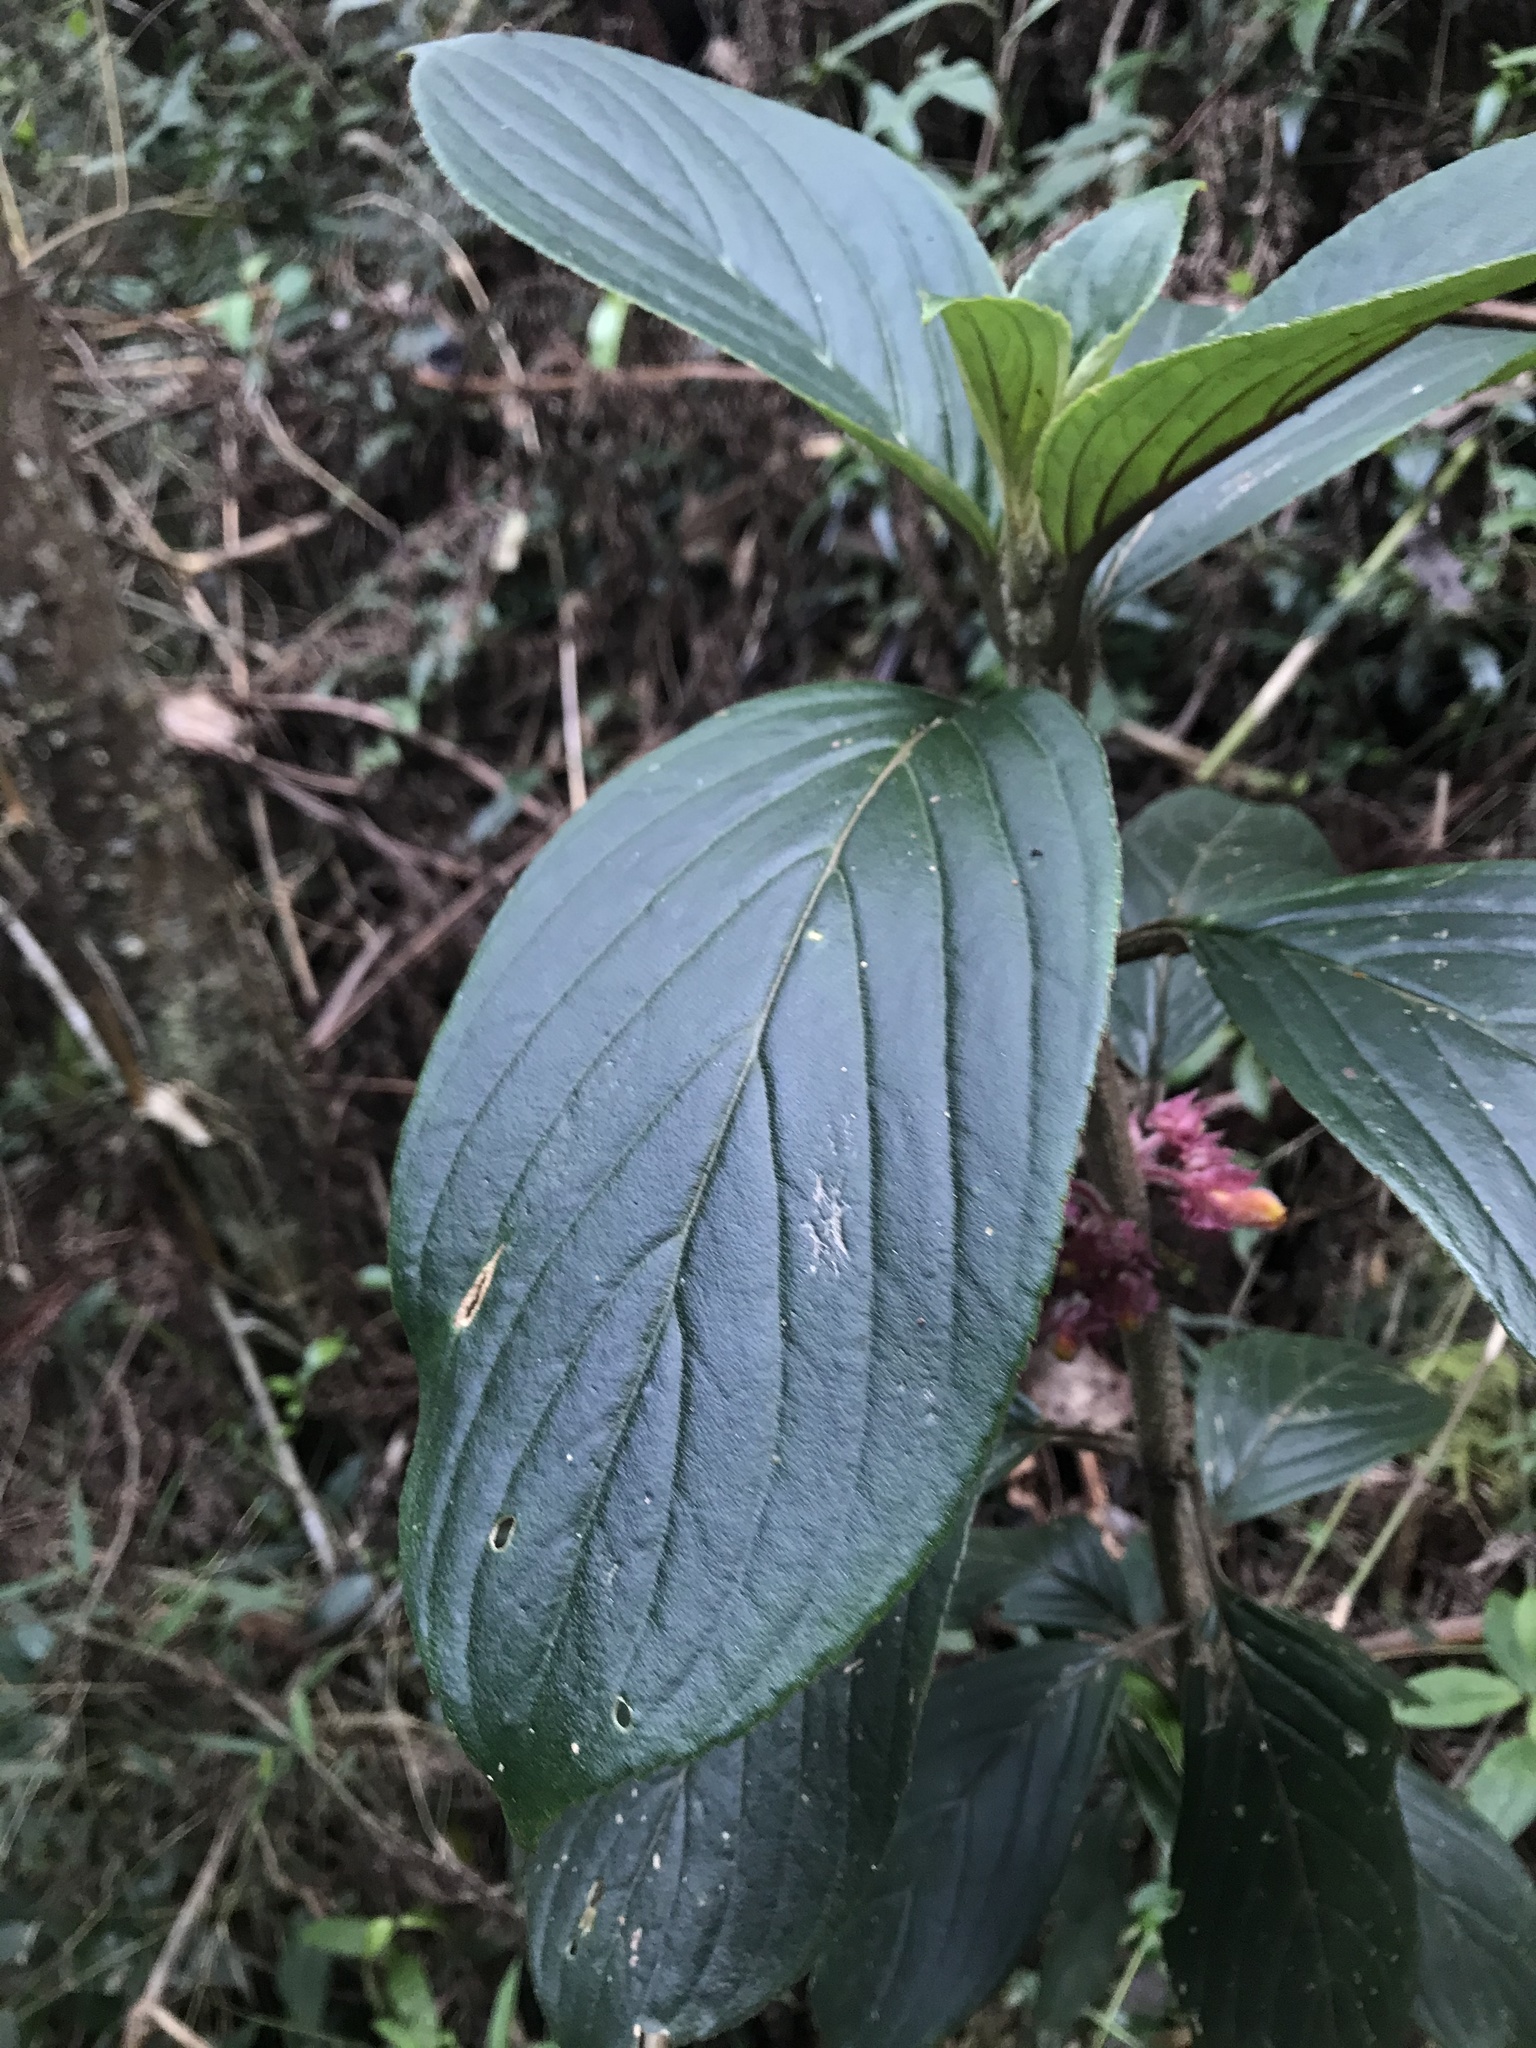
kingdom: Plantae
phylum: Tracheophyta
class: Magnoliopsida
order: Lamiales
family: Gesneriaceae
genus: Glossoloma
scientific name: Glossoloma ichthyoderma
